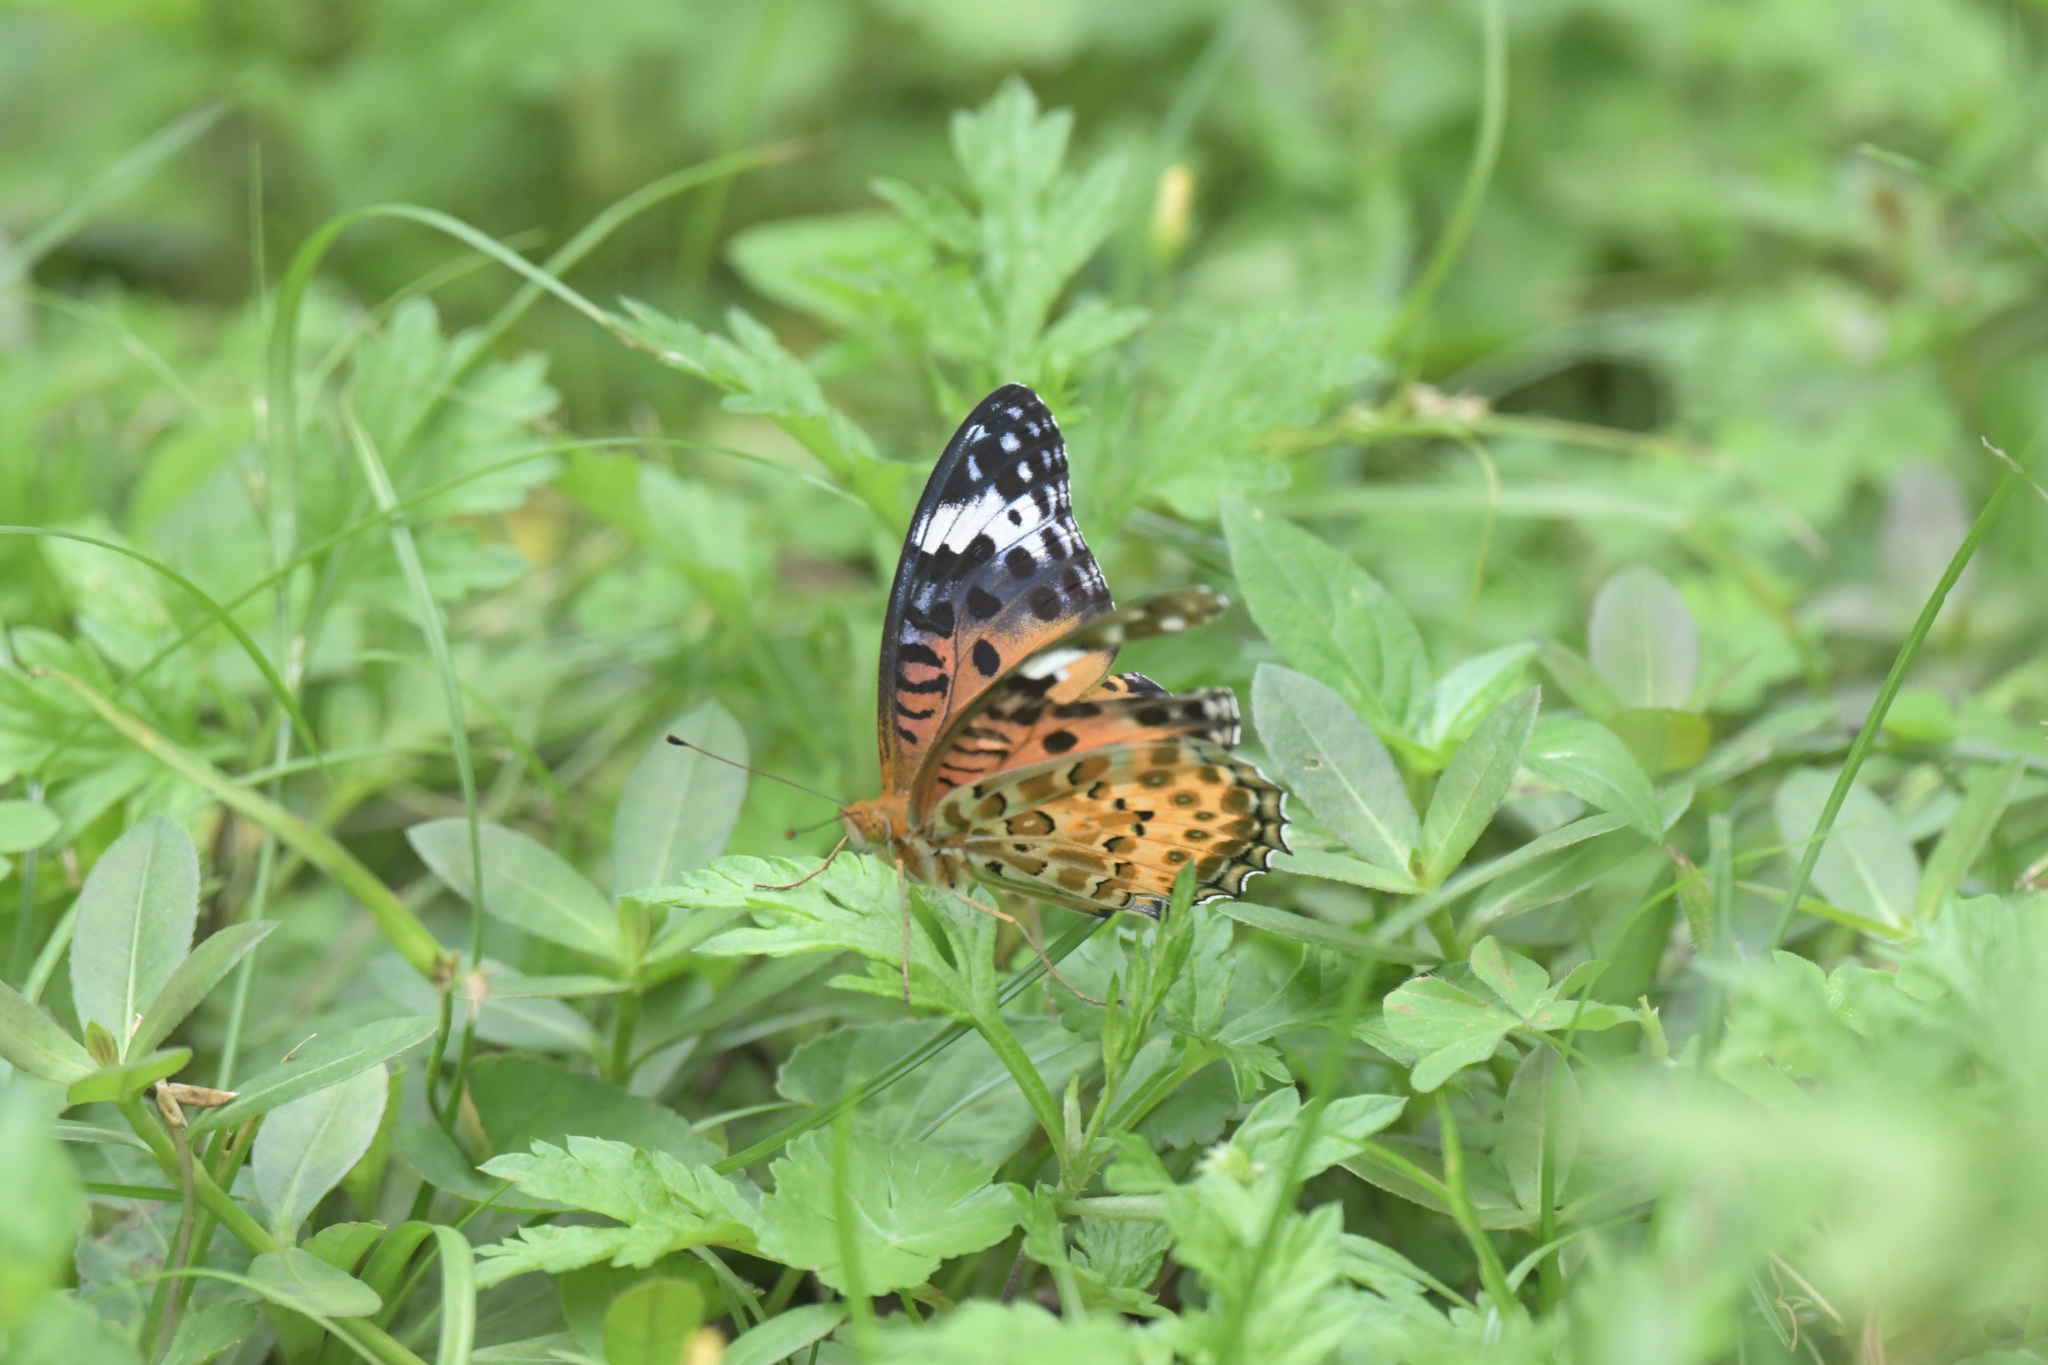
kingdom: Animalia
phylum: Arthropoda
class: Insecta
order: Lepidoptera
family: Nymphalidae
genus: Argynnis
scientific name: Argynnis hyperbius
